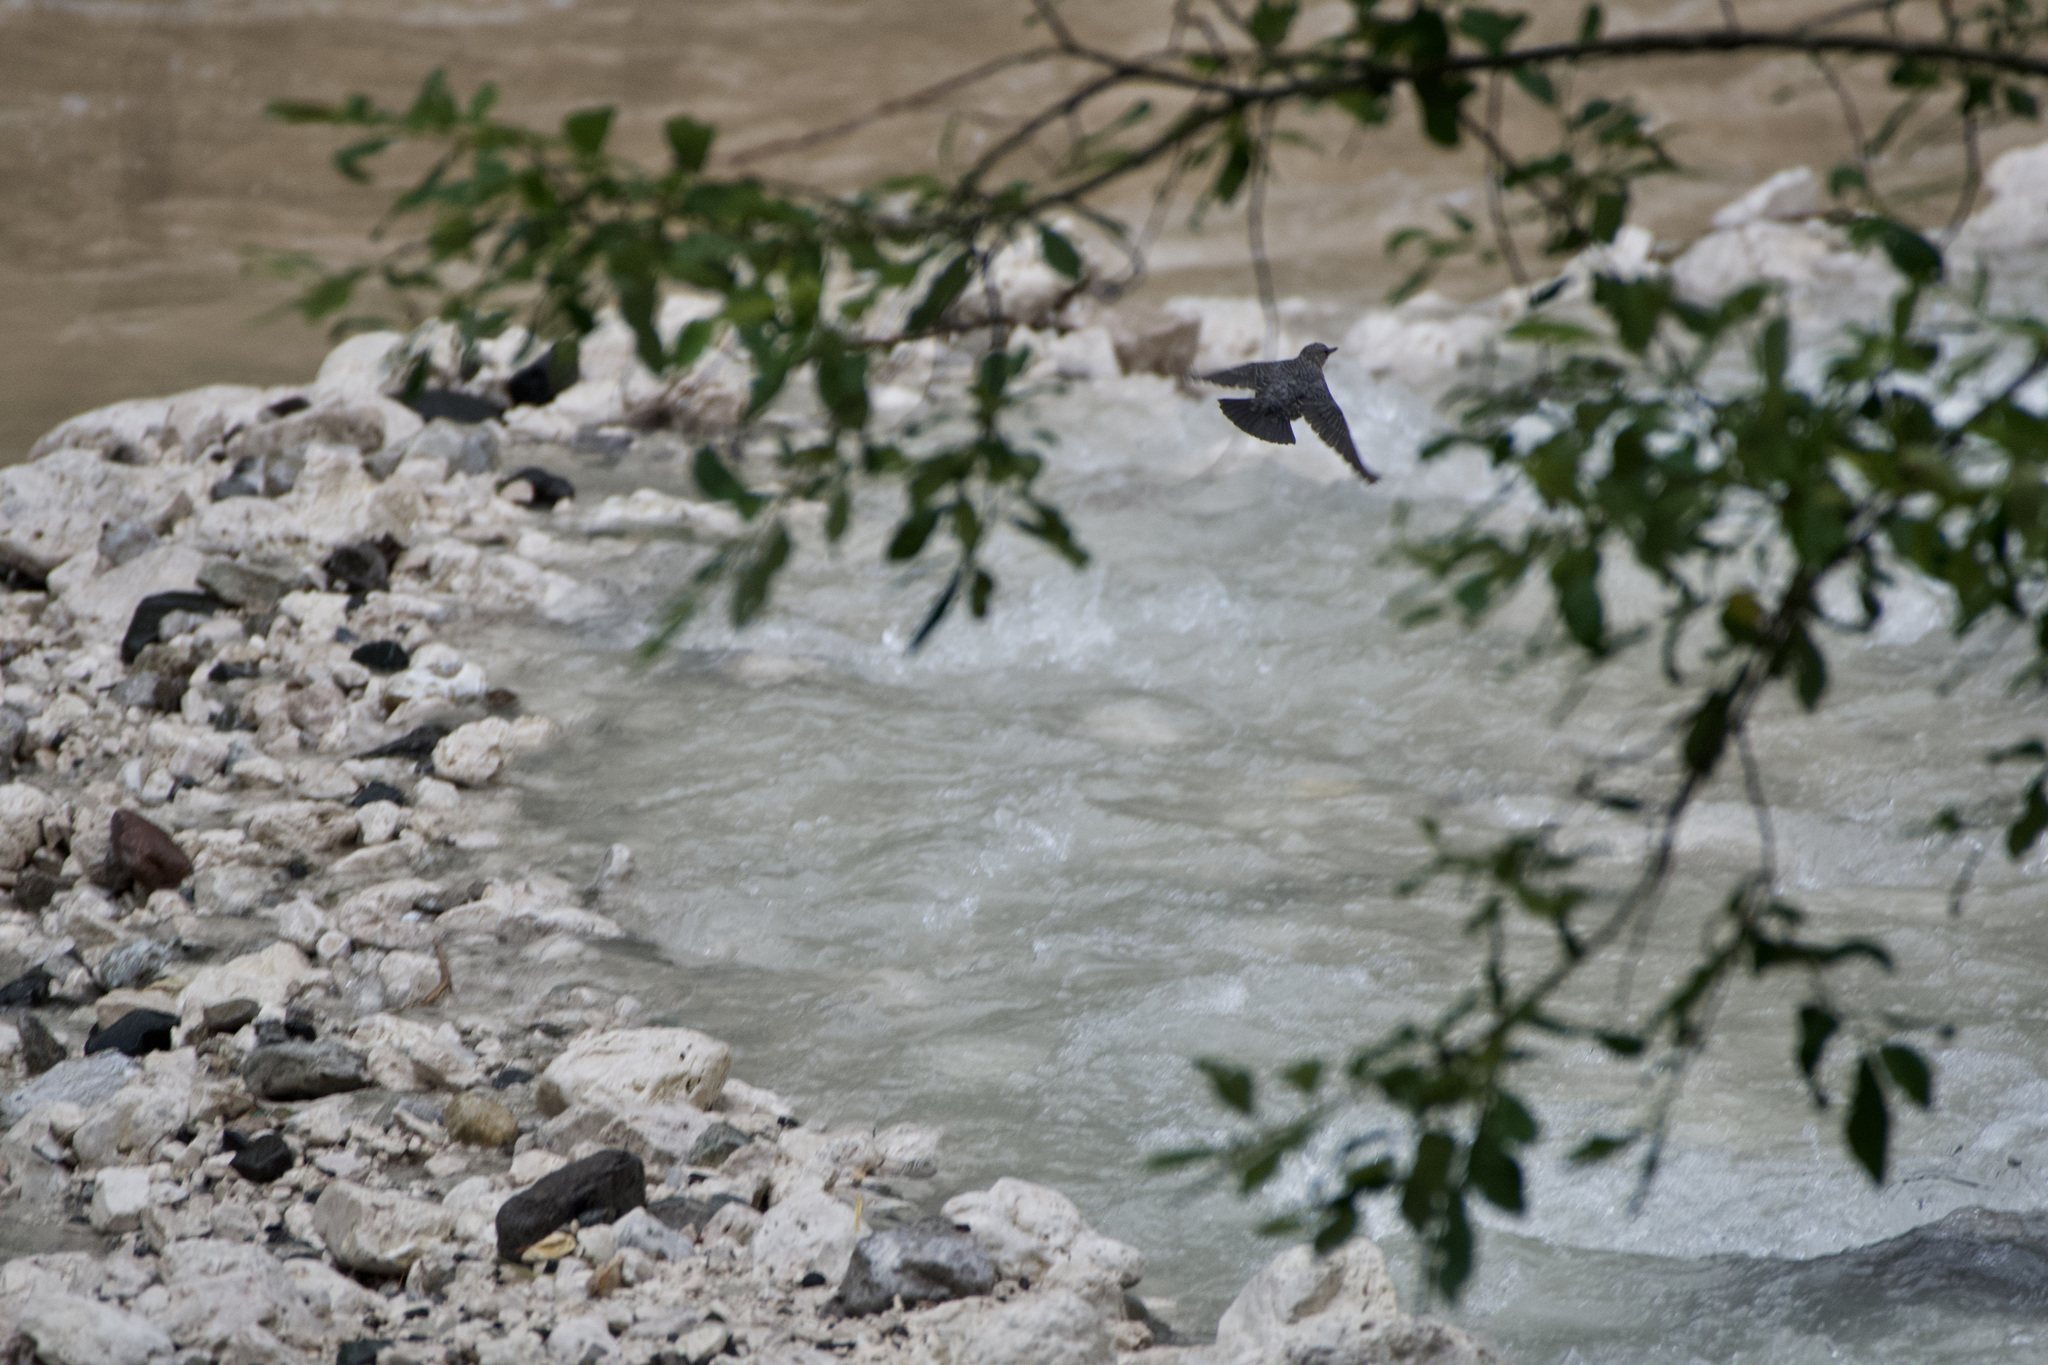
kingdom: Animalia
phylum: Chordata
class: Aves
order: Passeriformes
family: Cinclidae
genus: Cinclus
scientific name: Cinclus cinclus
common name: White-throated dipper
